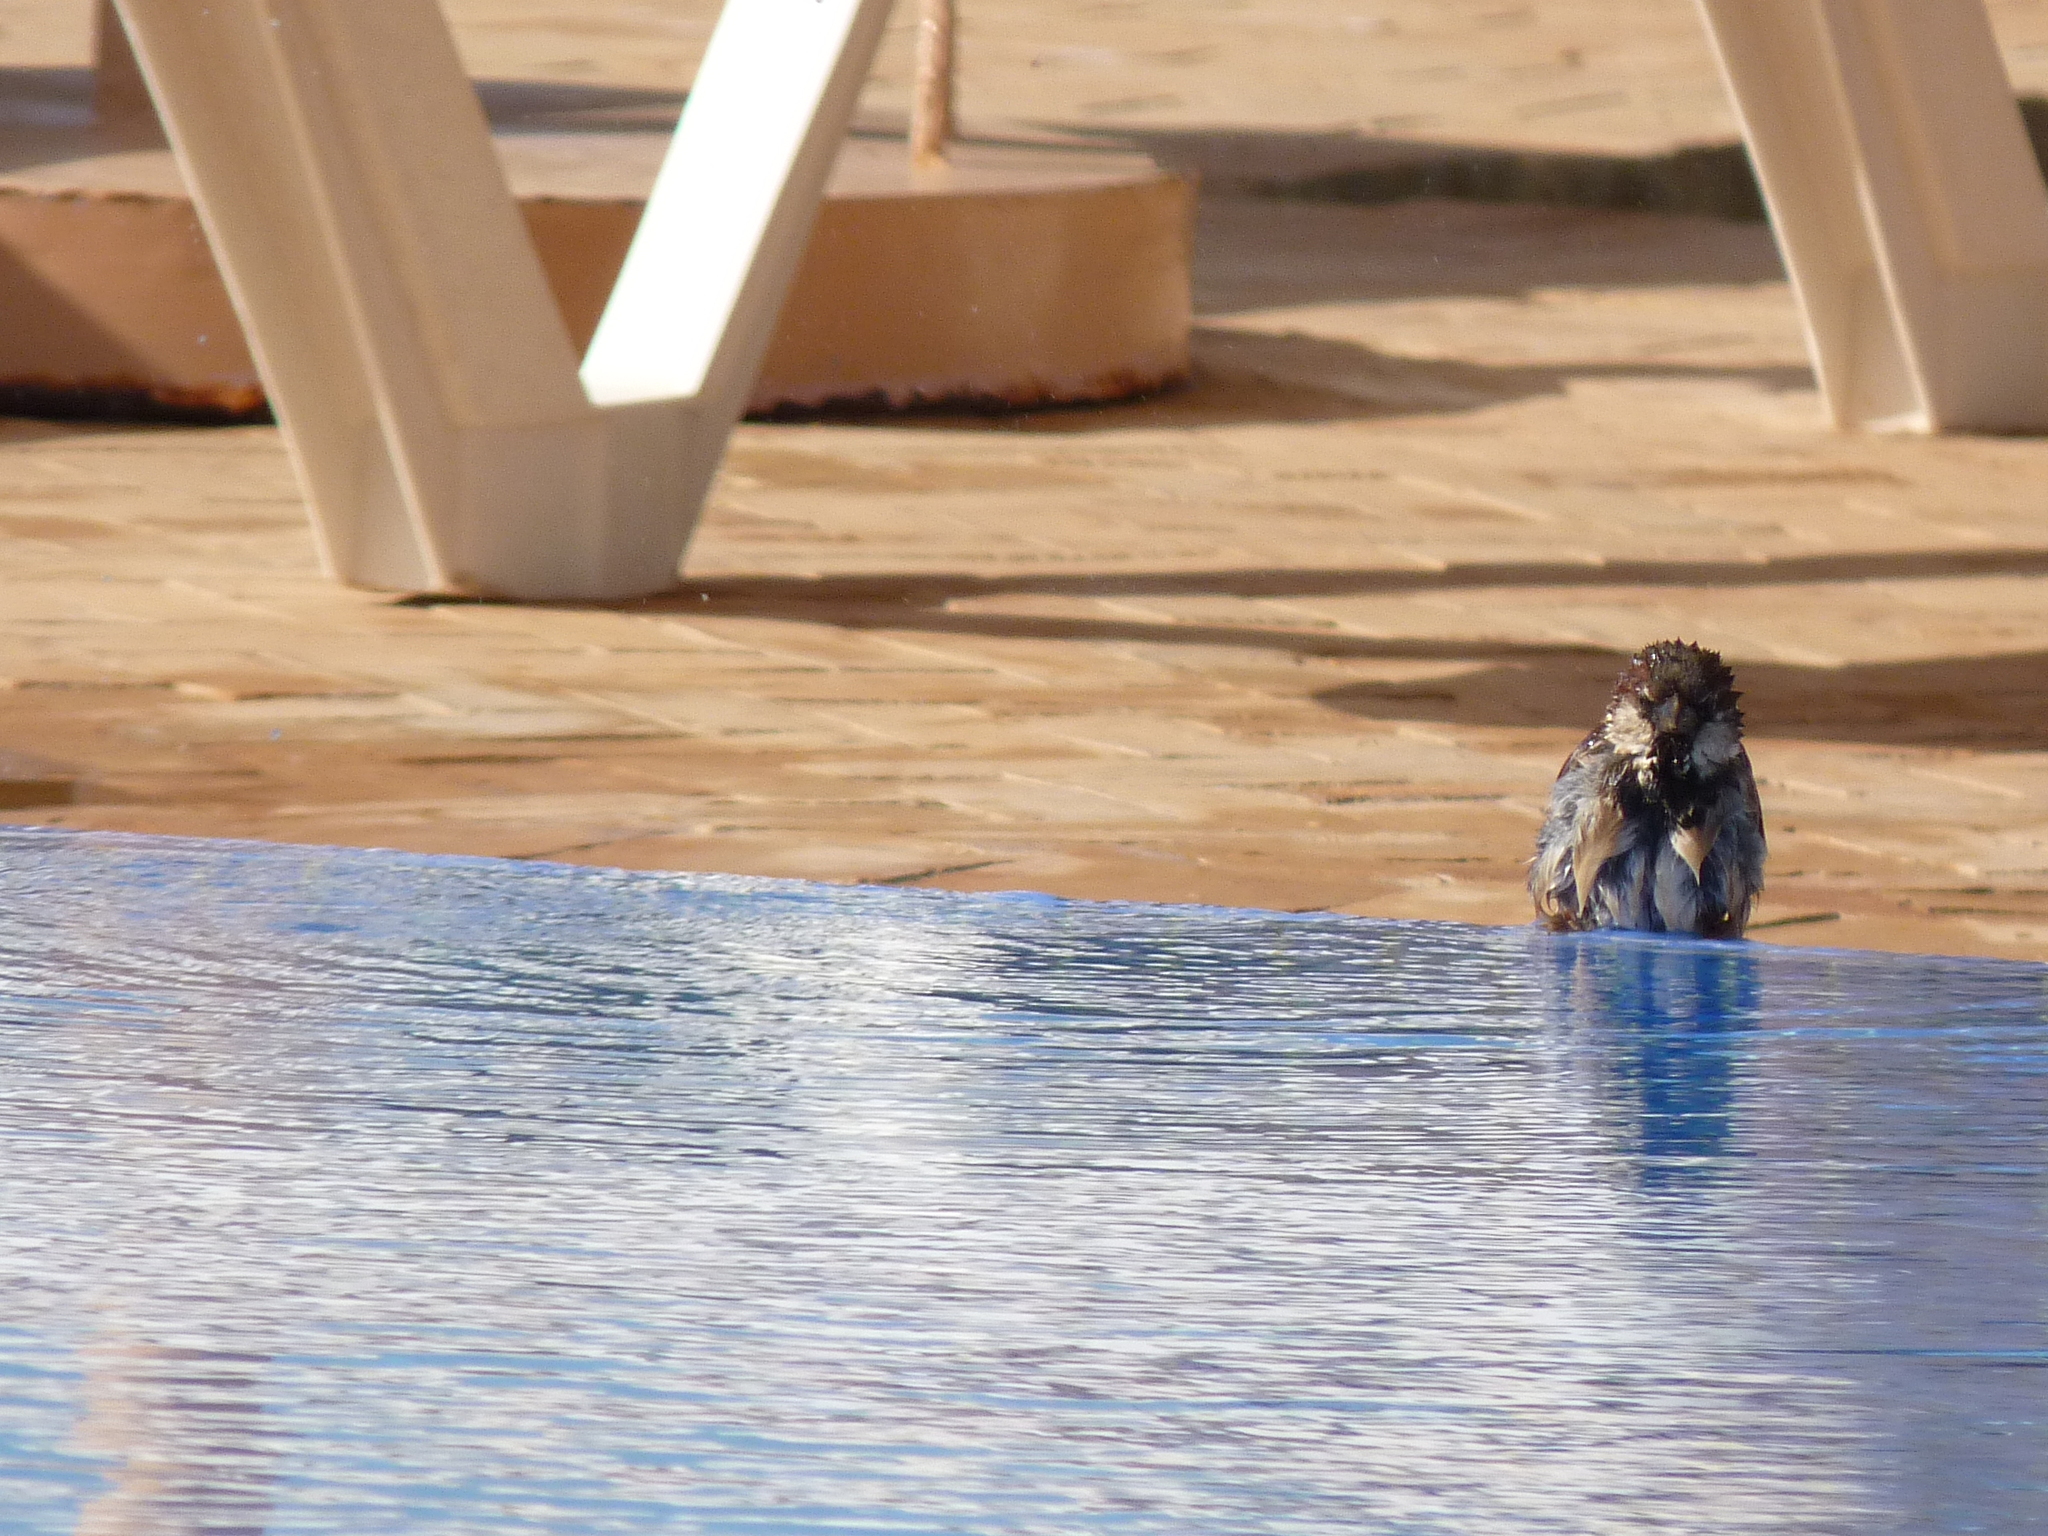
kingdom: Animalia
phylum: Chordata
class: Aves
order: Passeriformes
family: Passeridae
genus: Passer
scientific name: Passer domesticus
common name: House sparrow
